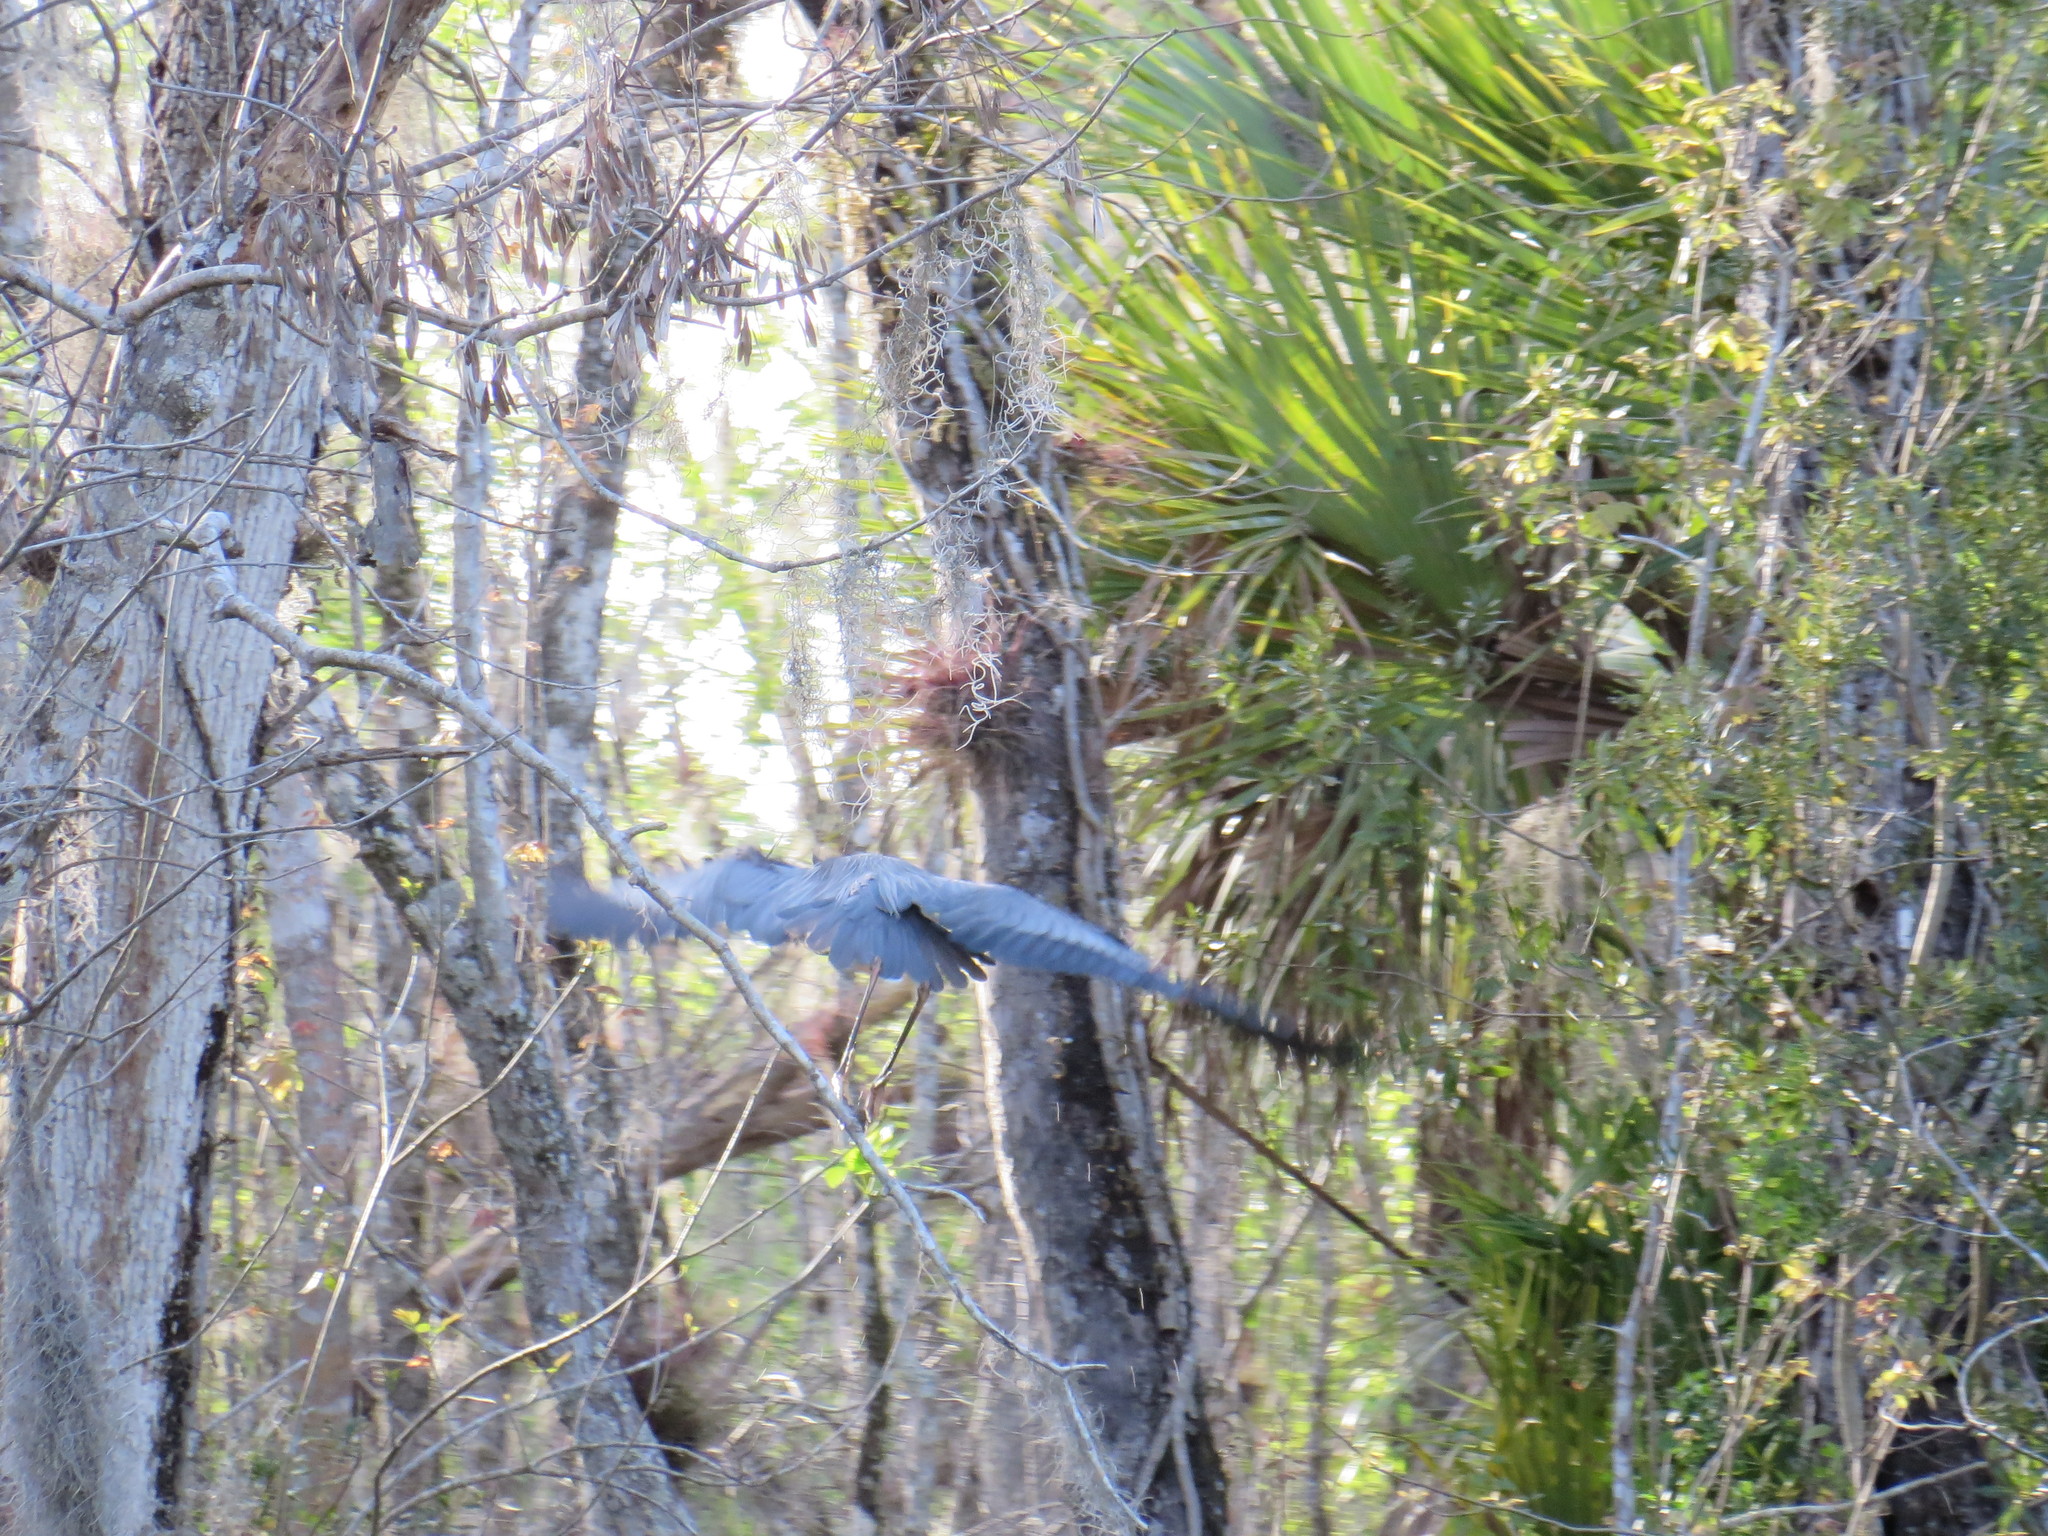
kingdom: Animalia
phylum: Chordata
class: Aves
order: Pelecaniformes
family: Ardeidae
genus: Ardea
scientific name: Ardea herodias
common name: Great blue heron
